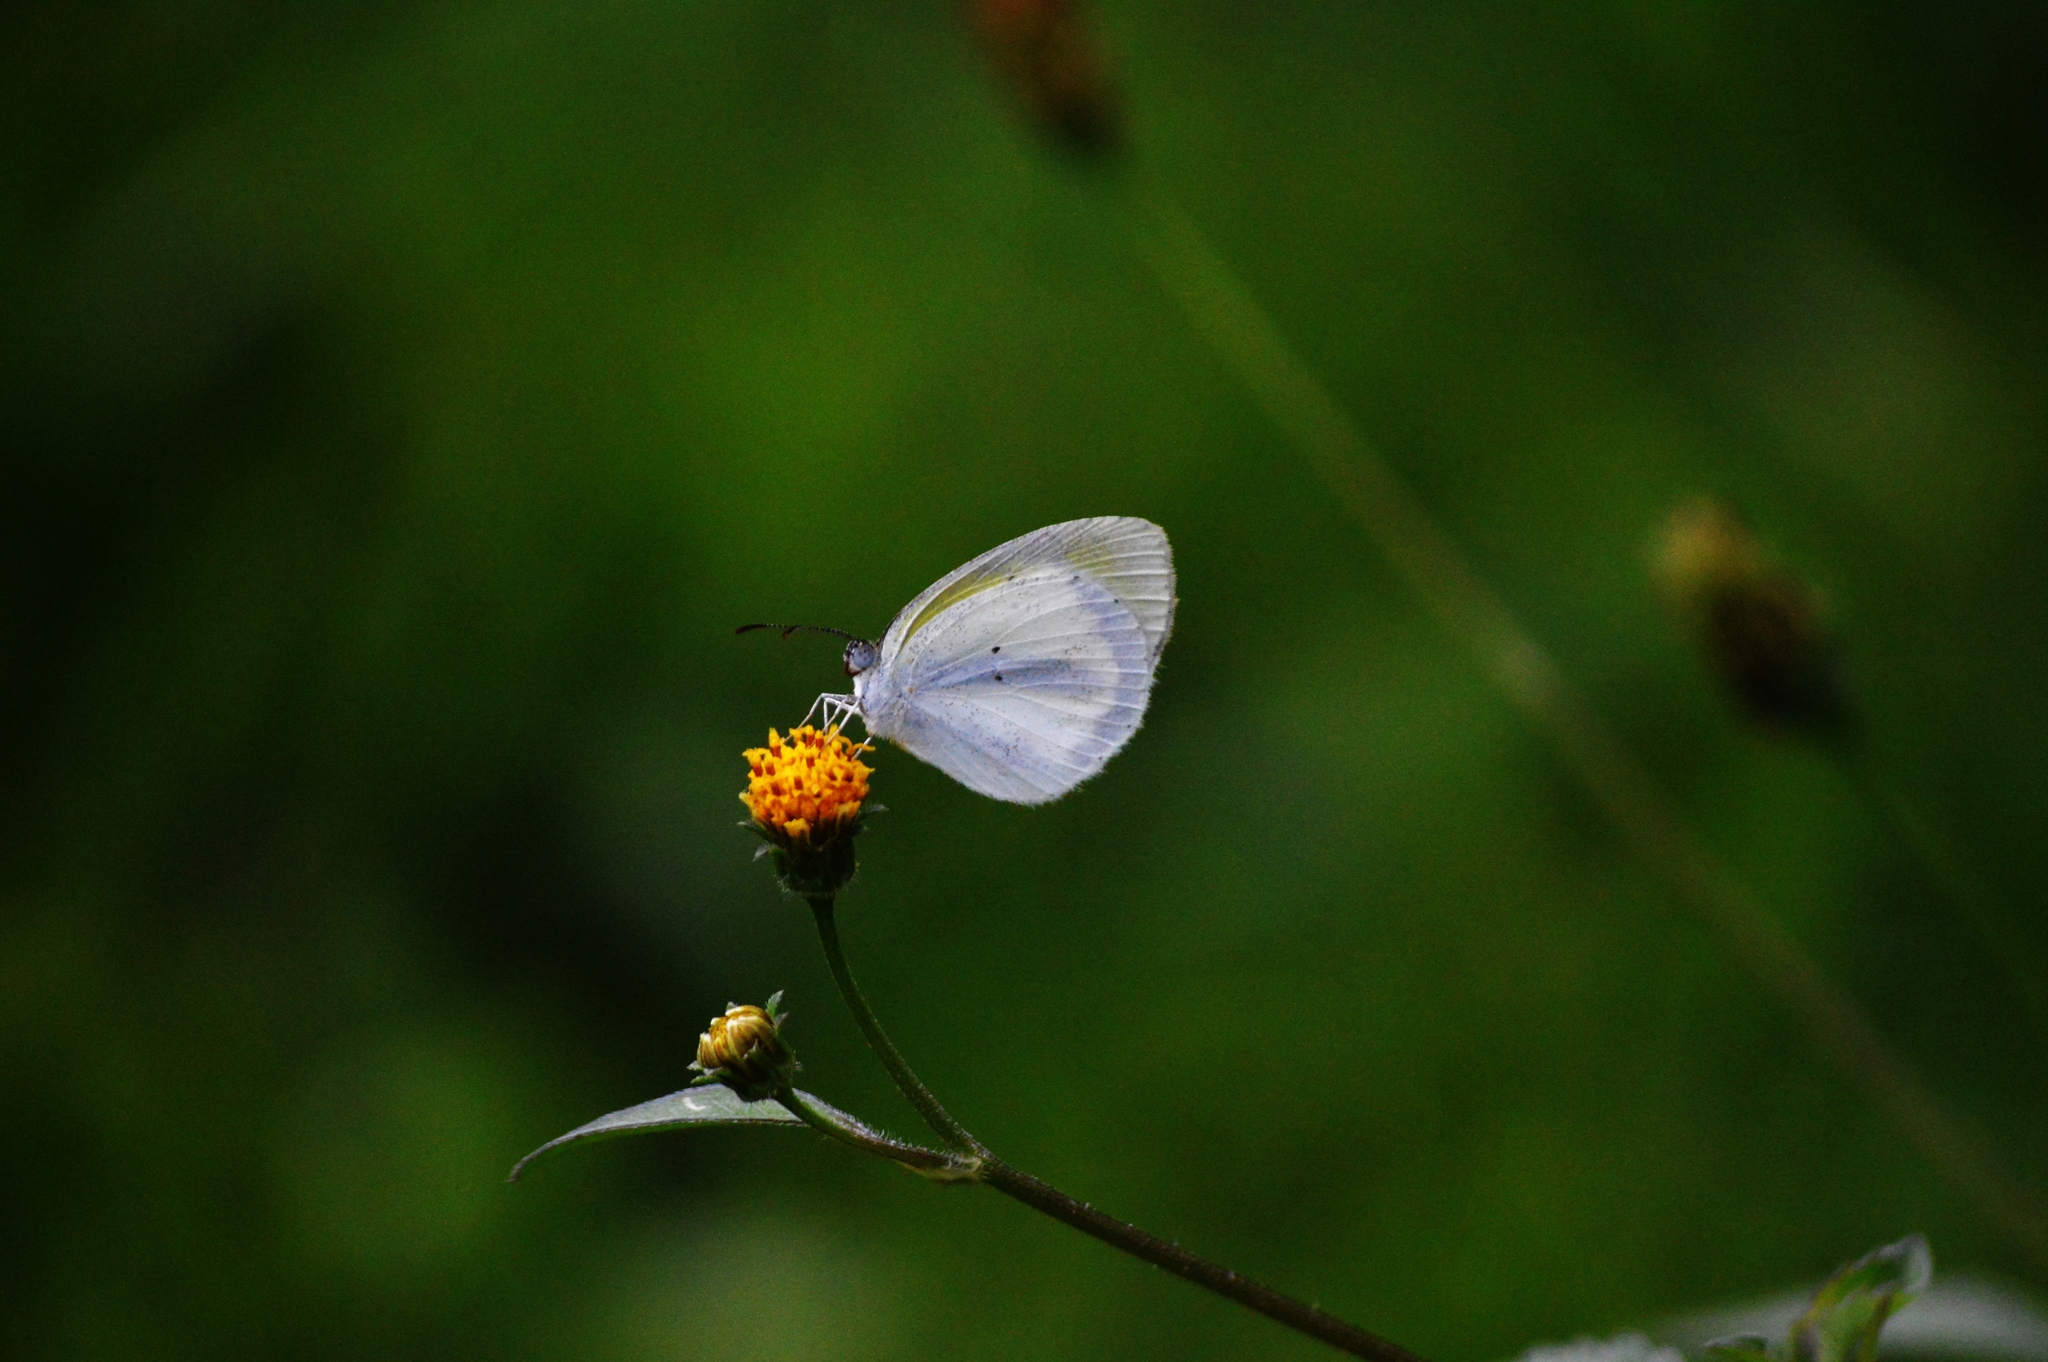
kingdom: Animalia
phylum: Arthropoda
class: Insecta
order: Lepidoptera
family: Pieridae
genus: Eurema
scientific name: Eurema elathea
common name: Banded yellow
